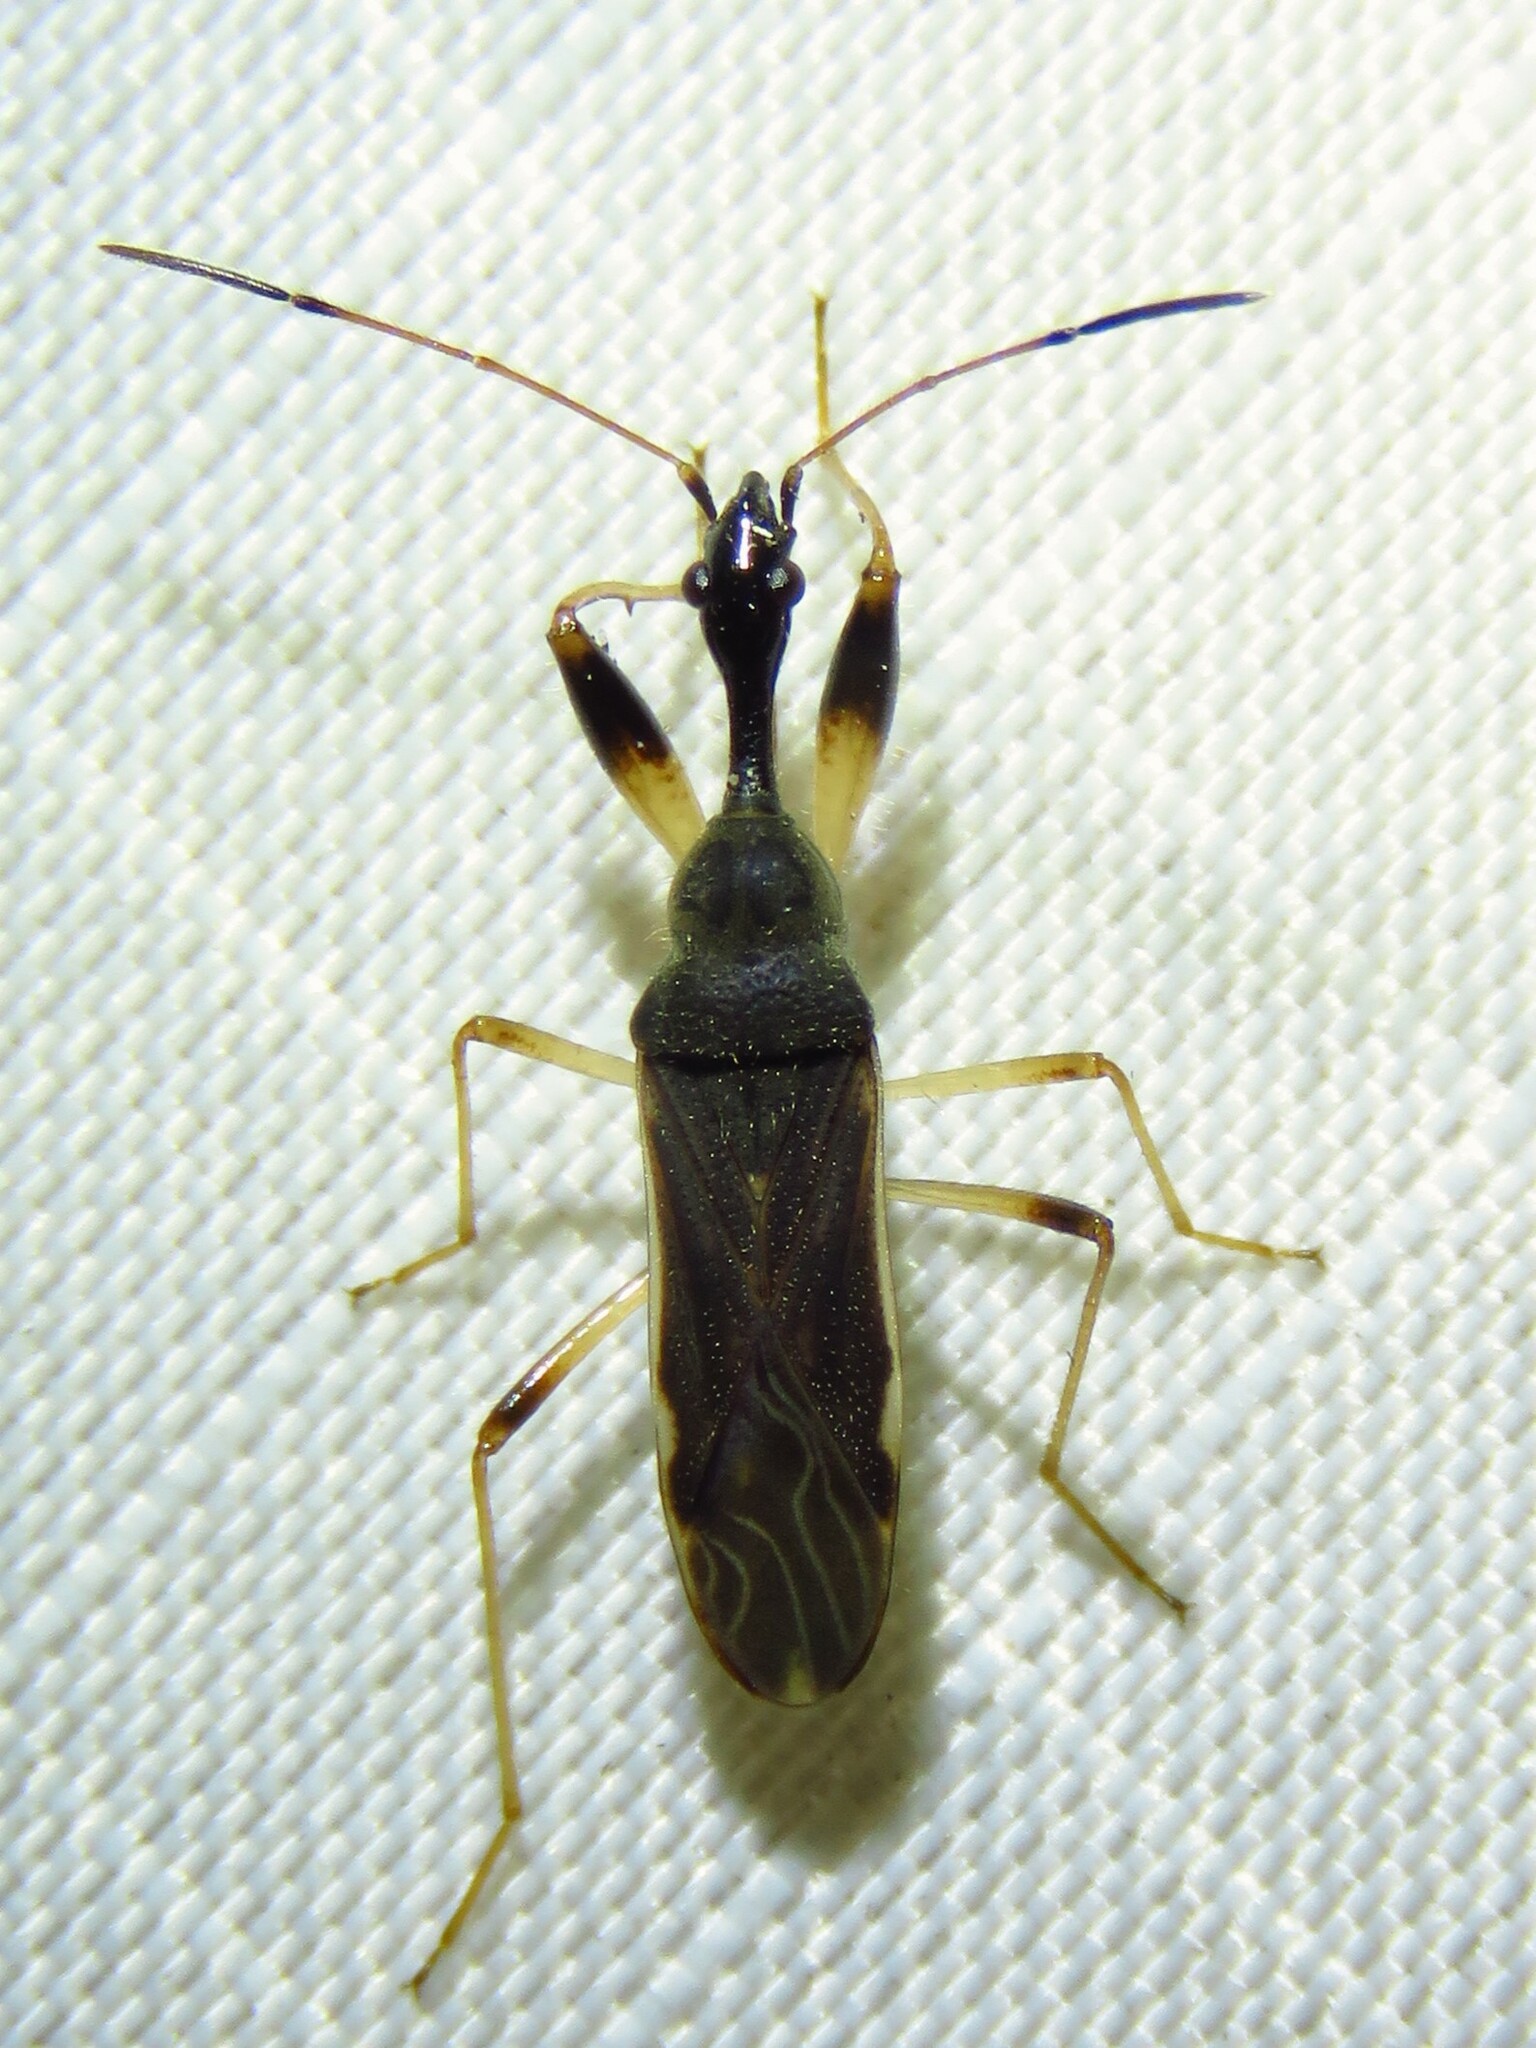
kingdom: Animalia
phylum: Arthropoda
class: Insecta
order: Hemiptera
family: Rhyparochromidae
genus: Myodocha
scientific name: Myodocha serripes
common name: Long-necked seed bug
